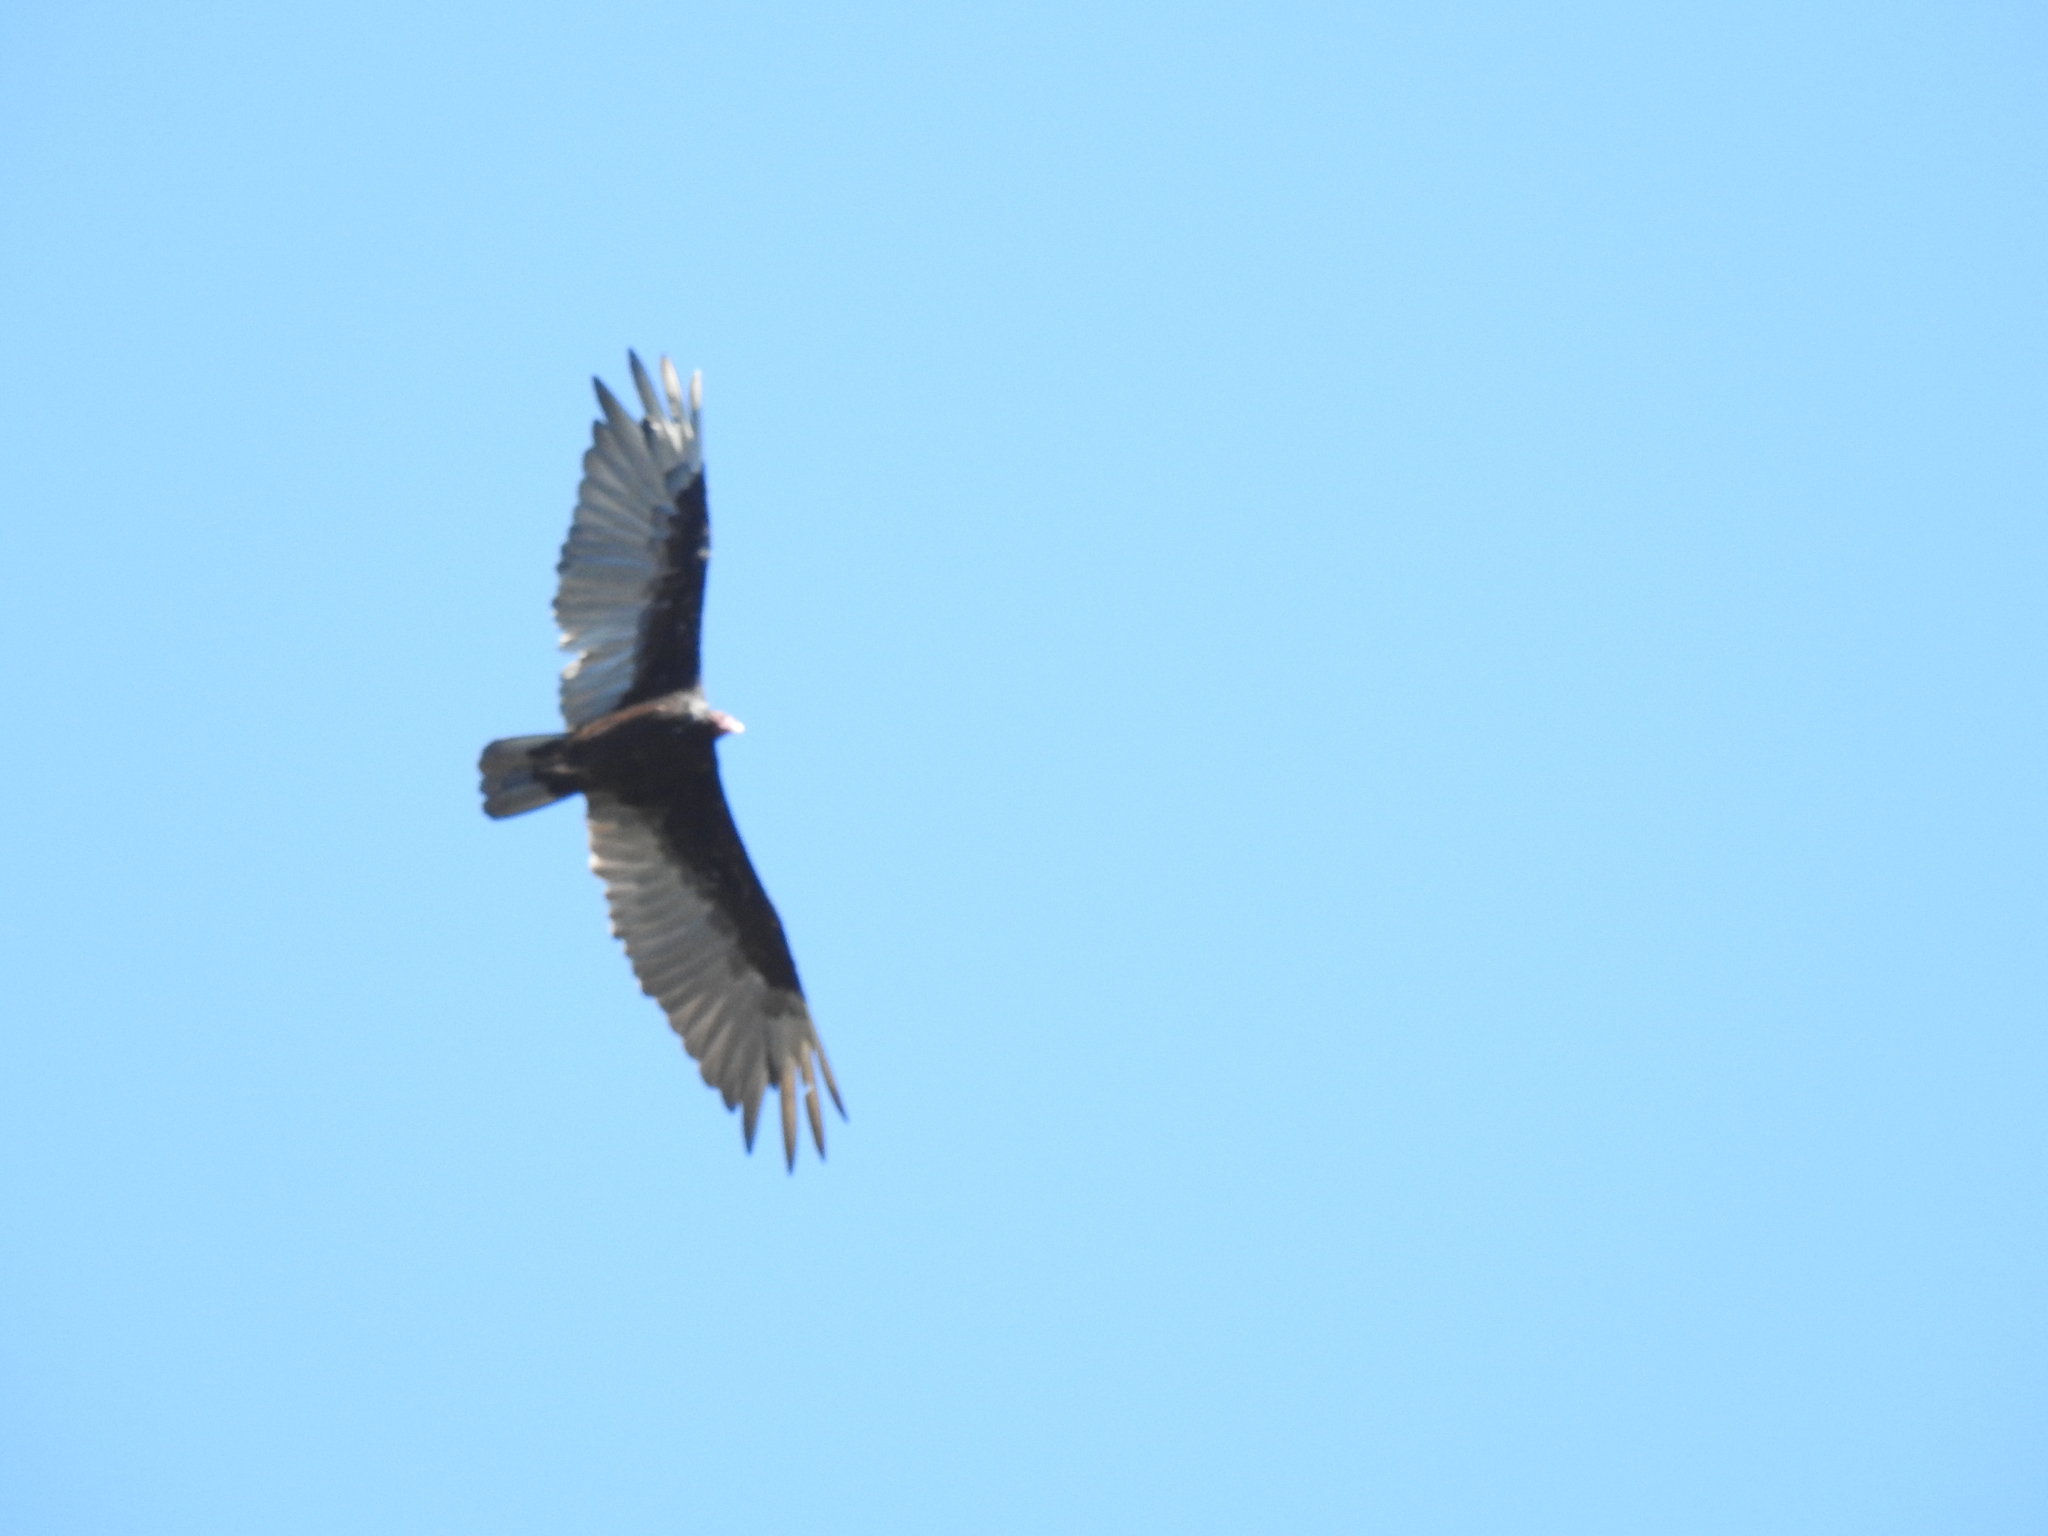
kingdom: Animalia
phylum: Chordata
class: Aves
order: Accipitriformes
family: Cathartidae
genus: Cathartes
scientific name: Cathartes aura
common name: Turkey vulture
